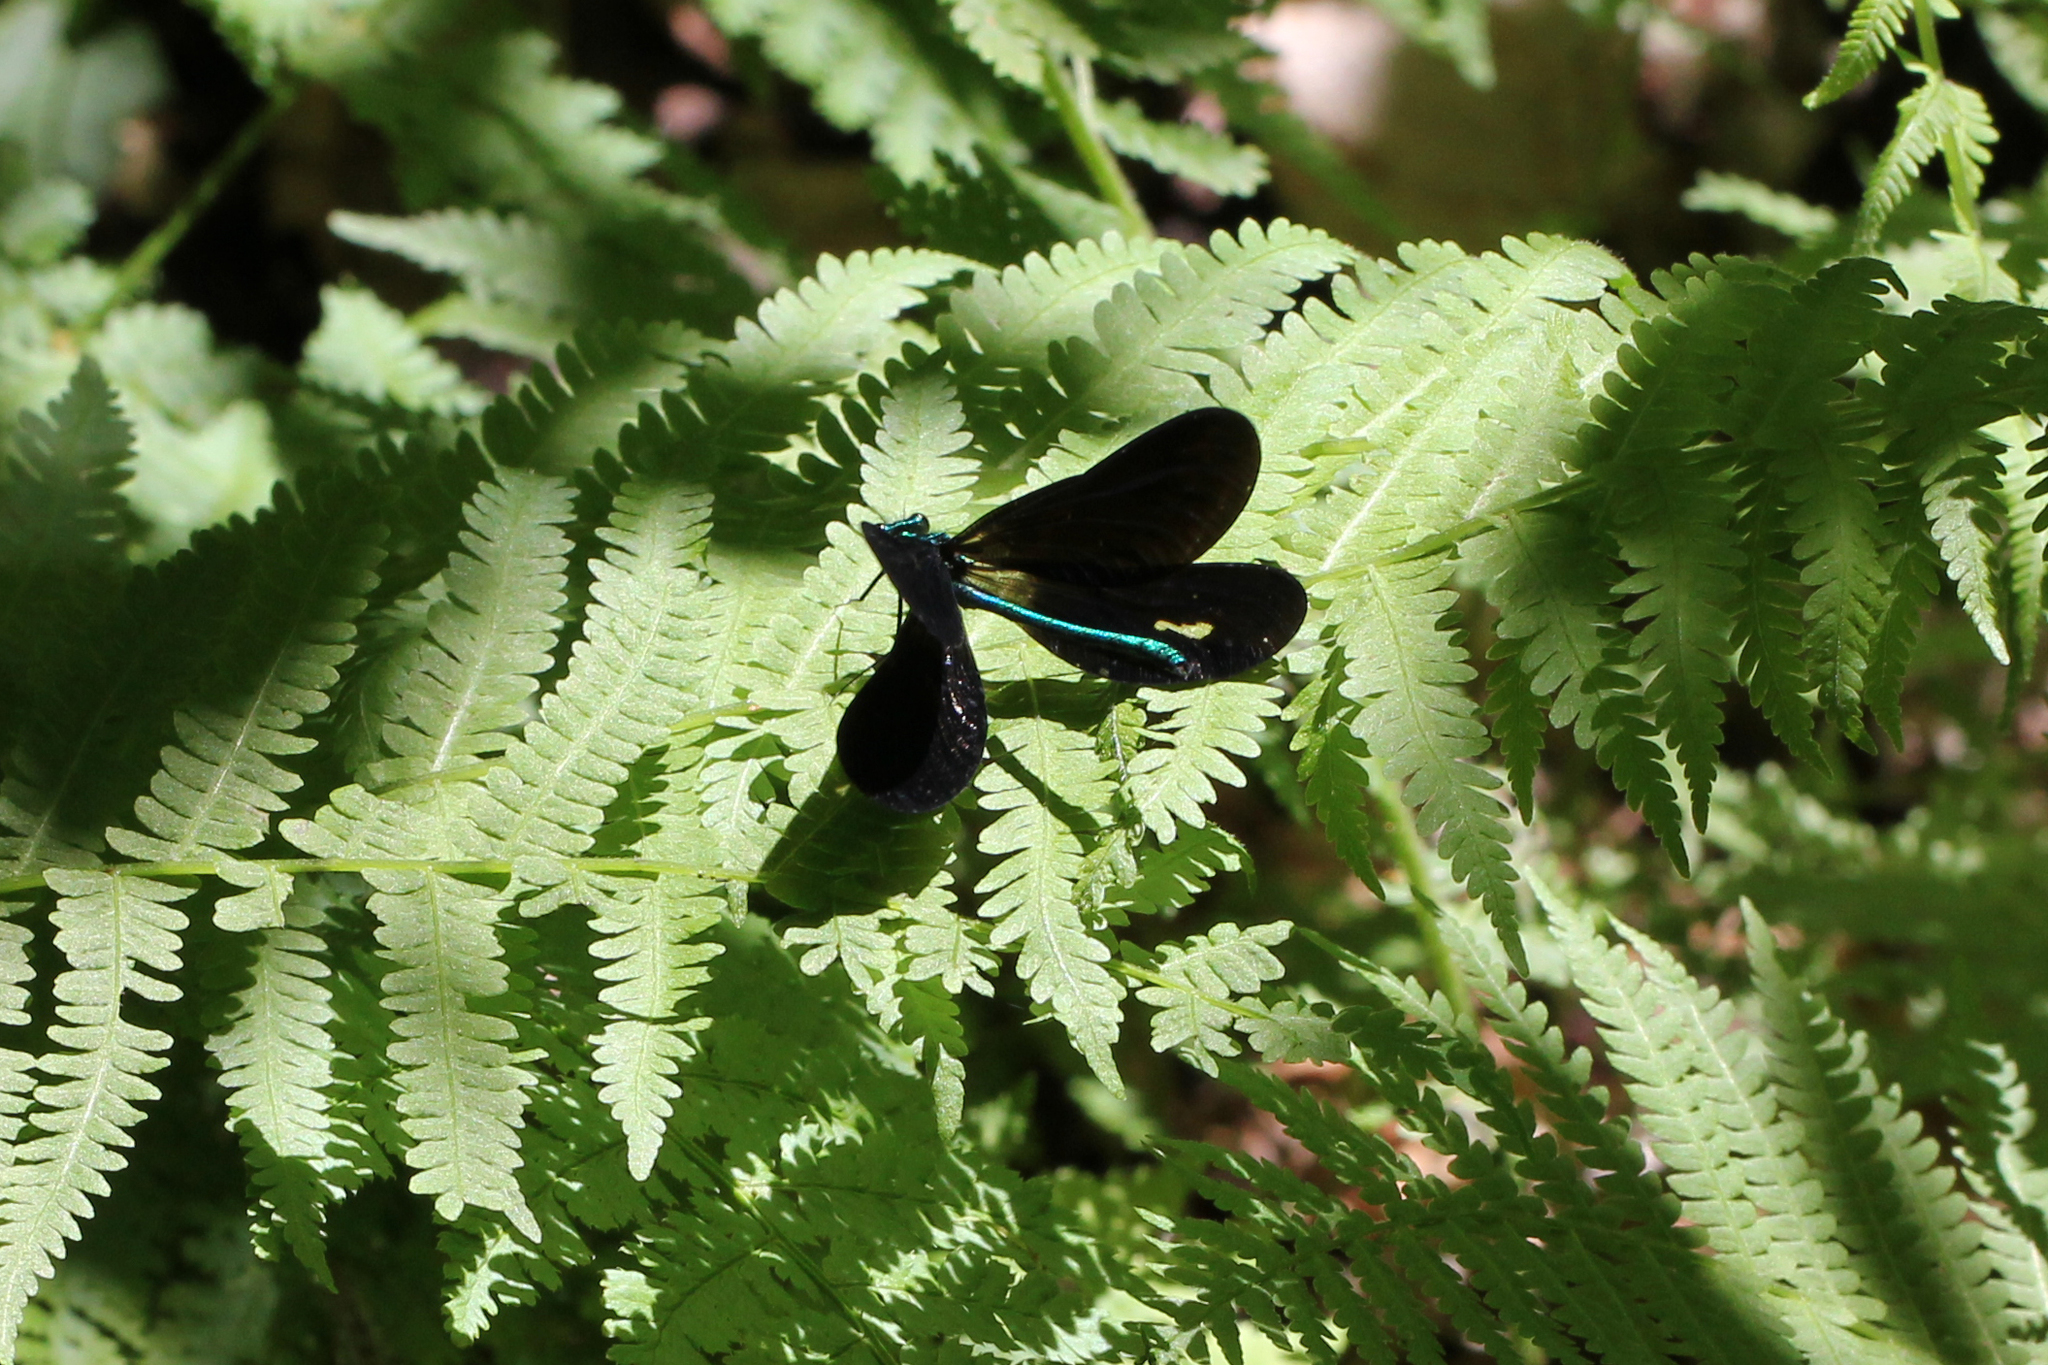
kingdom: Animalia
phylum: Arthropoda
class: Insecta
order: Odonata
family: Calopterygidae
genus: Calopteryx
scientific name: Calopteryx maculata
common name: Ebony jewelwing
